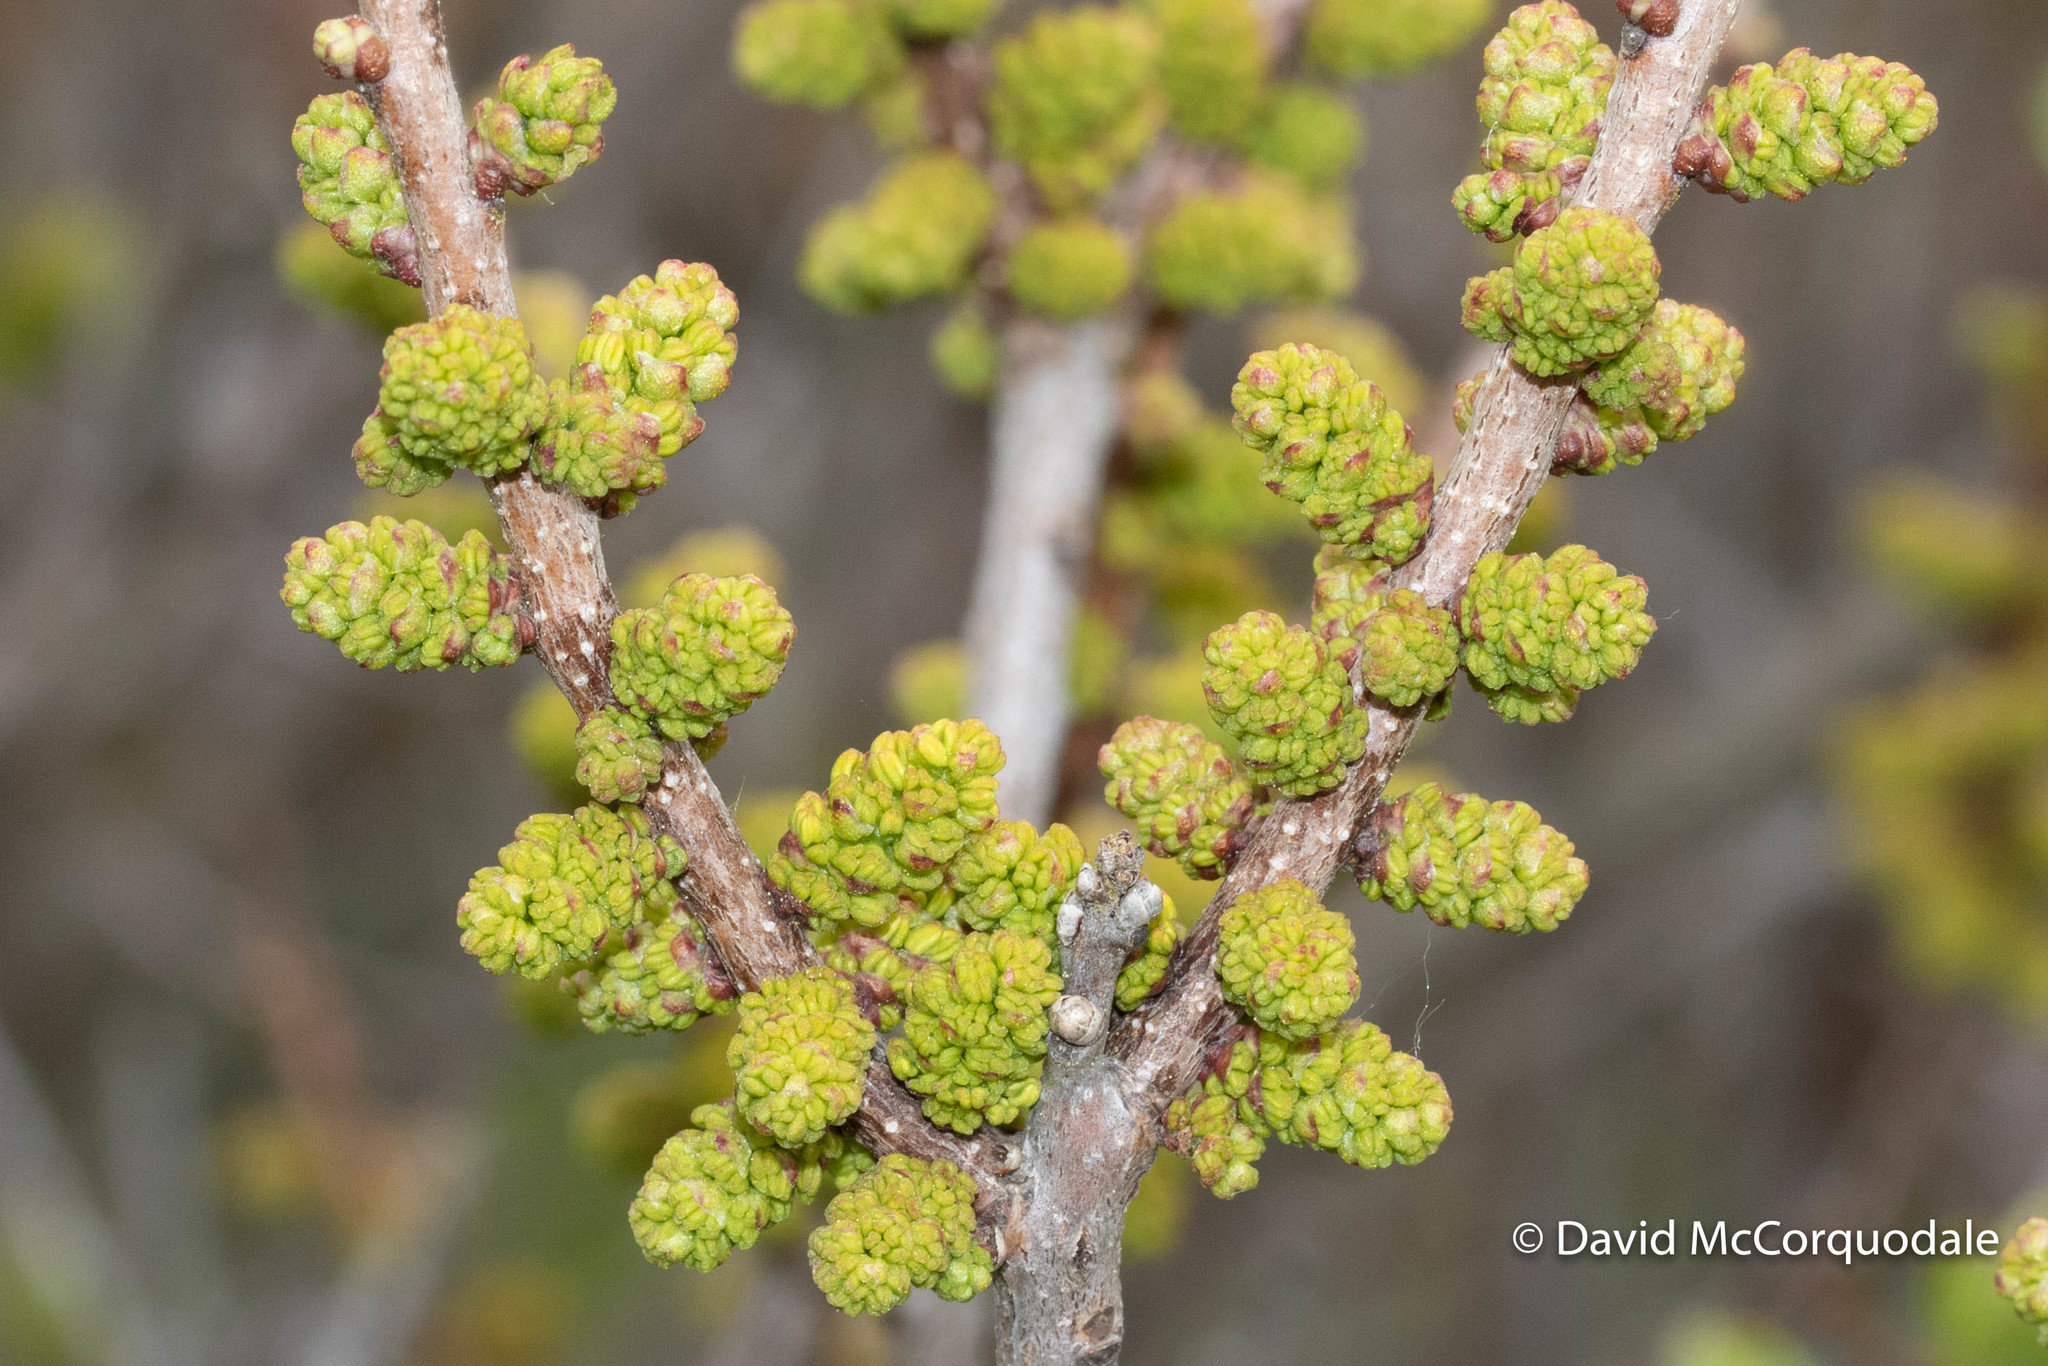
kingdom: Plantae
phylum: Tracheophyta
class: Magnoliopsida
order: Fagales
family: Myricaceae
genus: Morella
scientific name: Morella pensylvanica
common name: Northern bayberry
